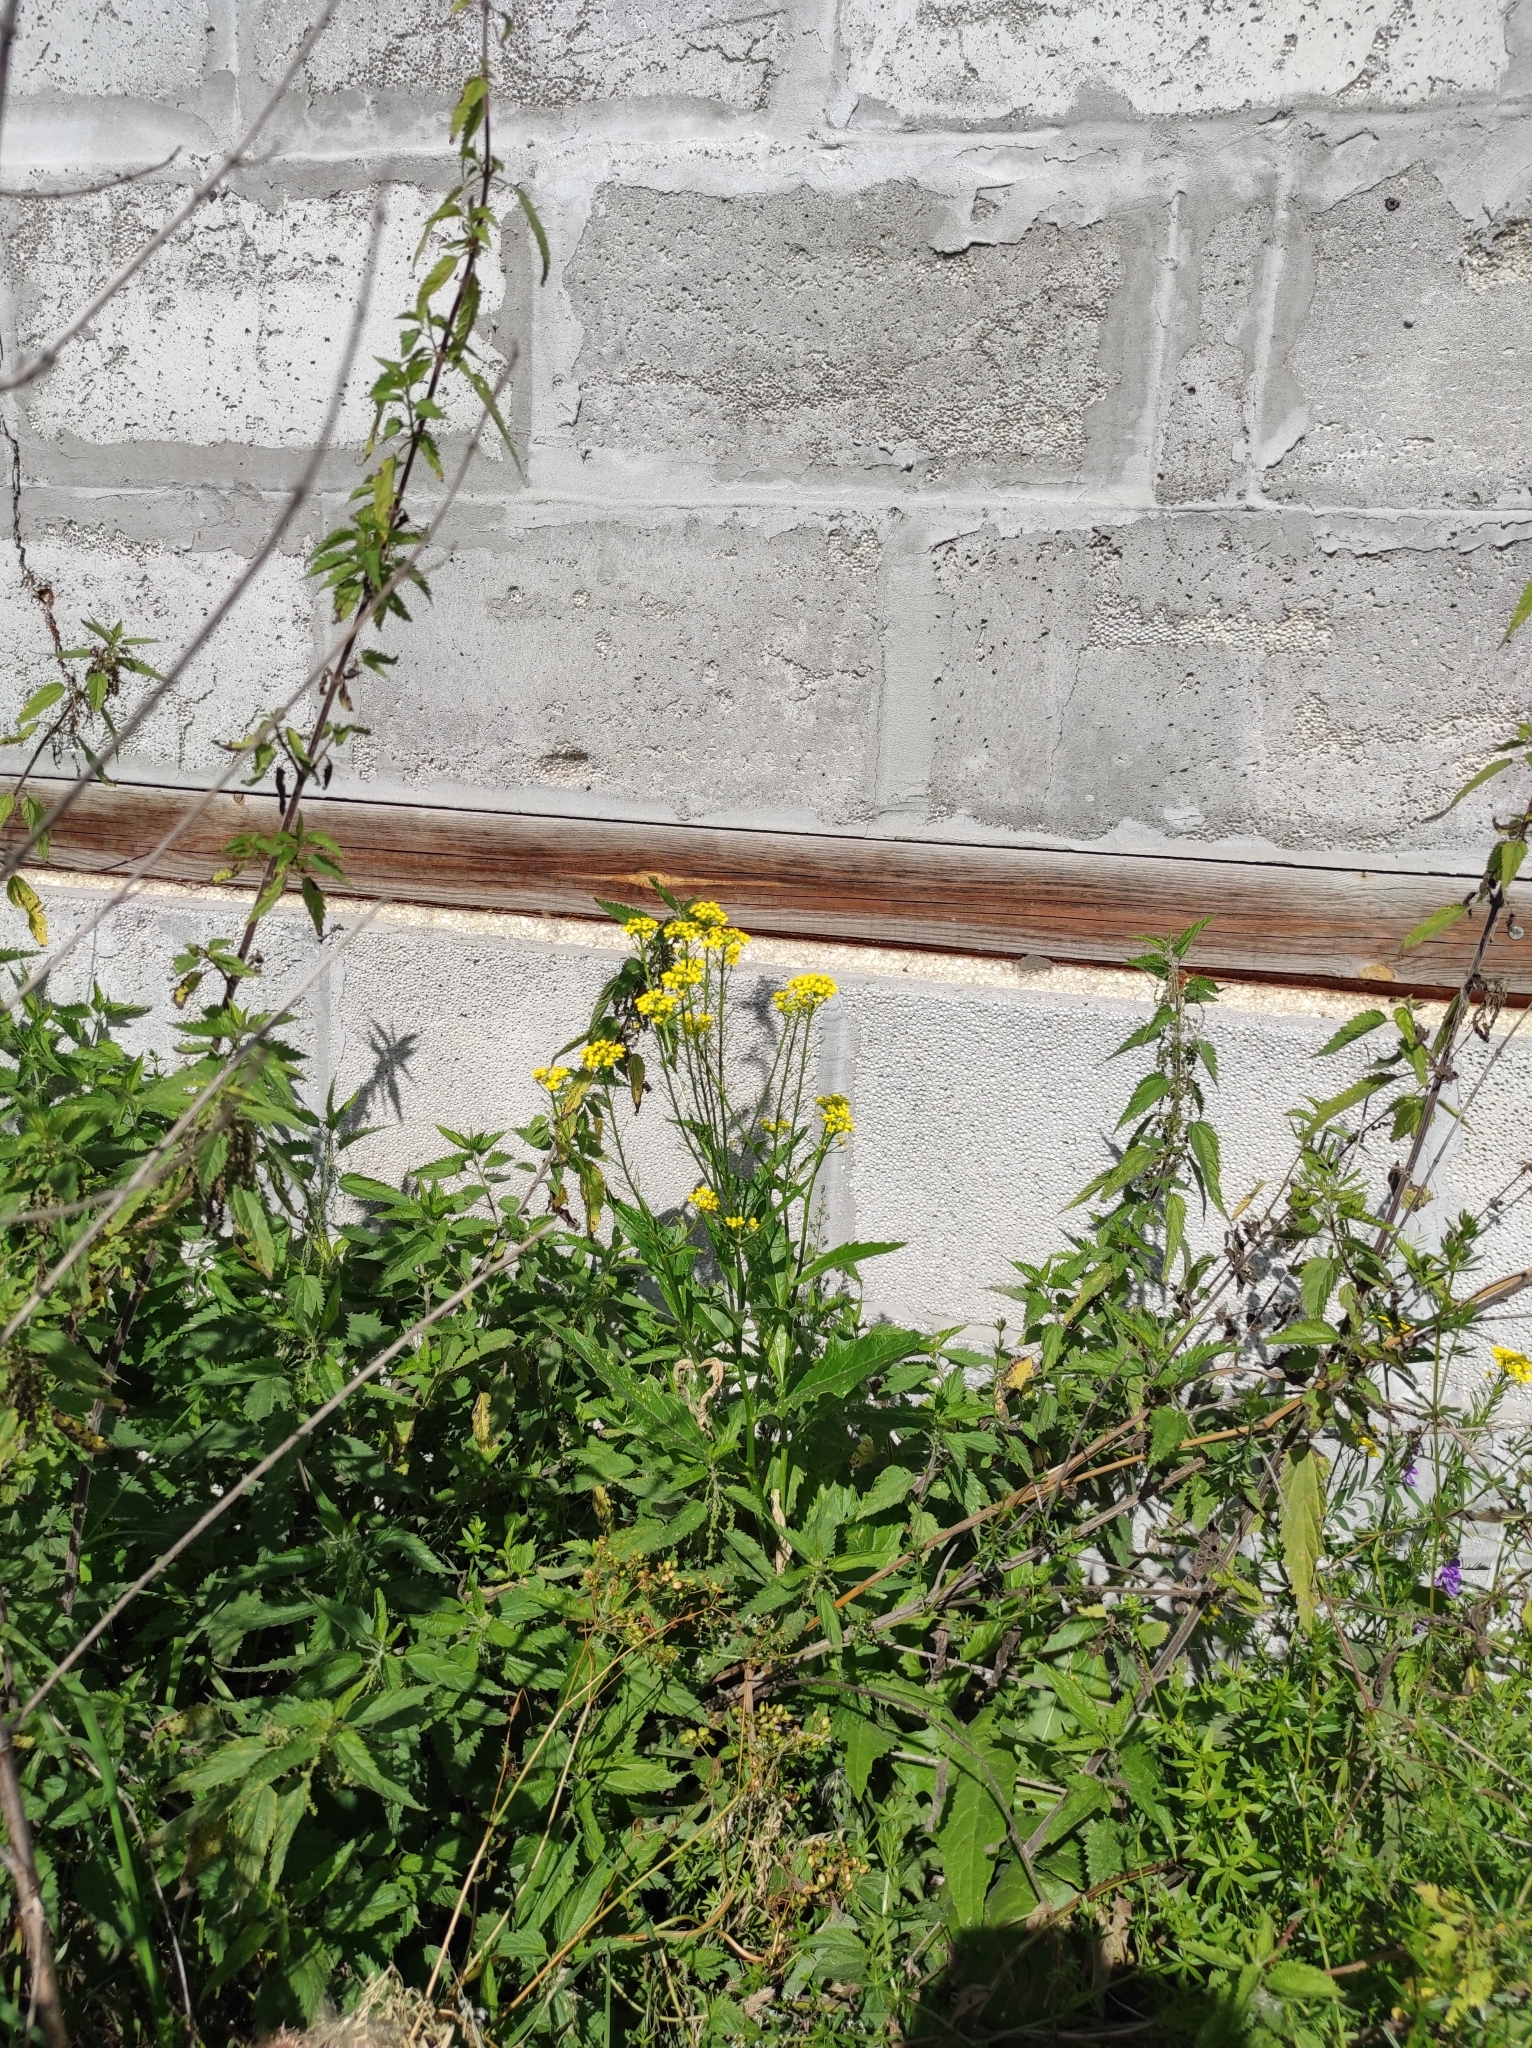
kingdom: Plantae
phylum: Tracheophyta
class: Magnoliopsida
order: Brassicales
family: Brassicaceae
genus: Sisymbrium
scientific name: Sisymbrium loeselii
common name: False london-rocket
